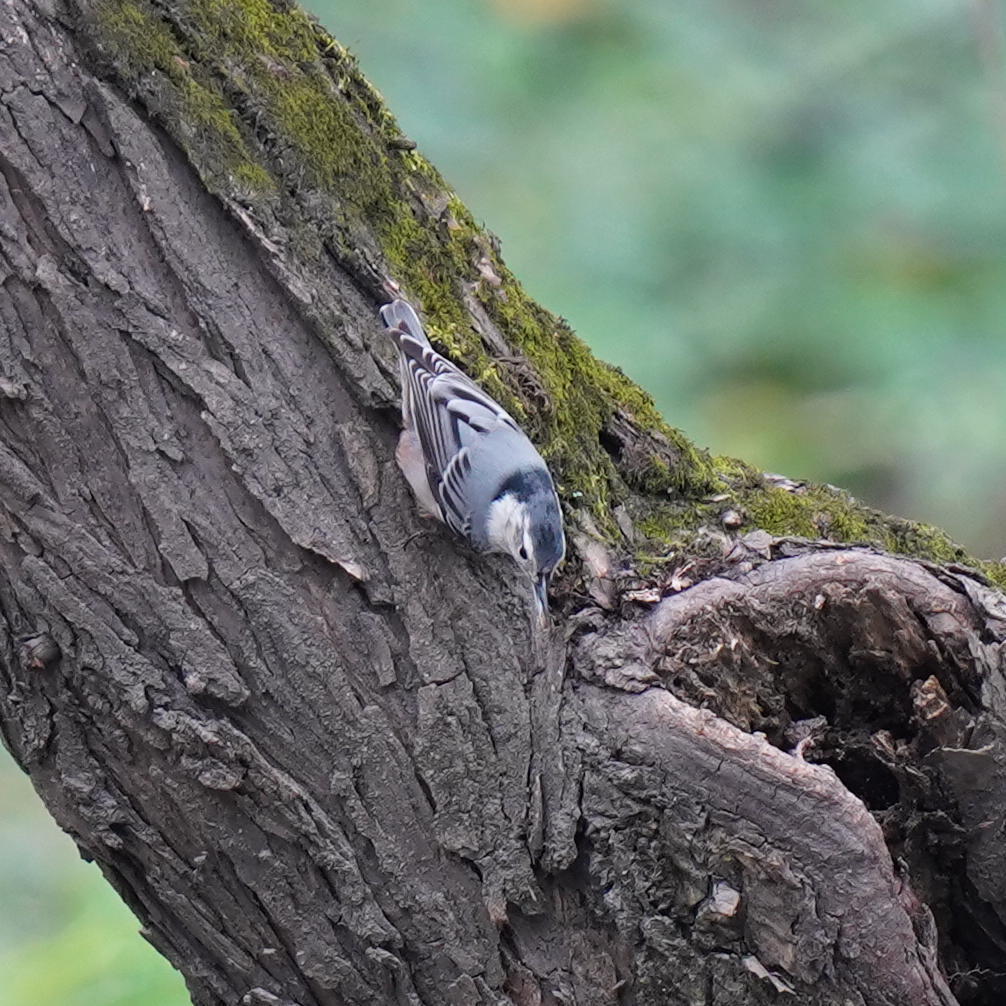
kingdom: Animalia
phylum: Chordata
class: Aves
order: Passeriformes
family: Sittidae
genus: Sitta
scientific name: Sitta carolinensis
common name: White-breasted nuthatch
